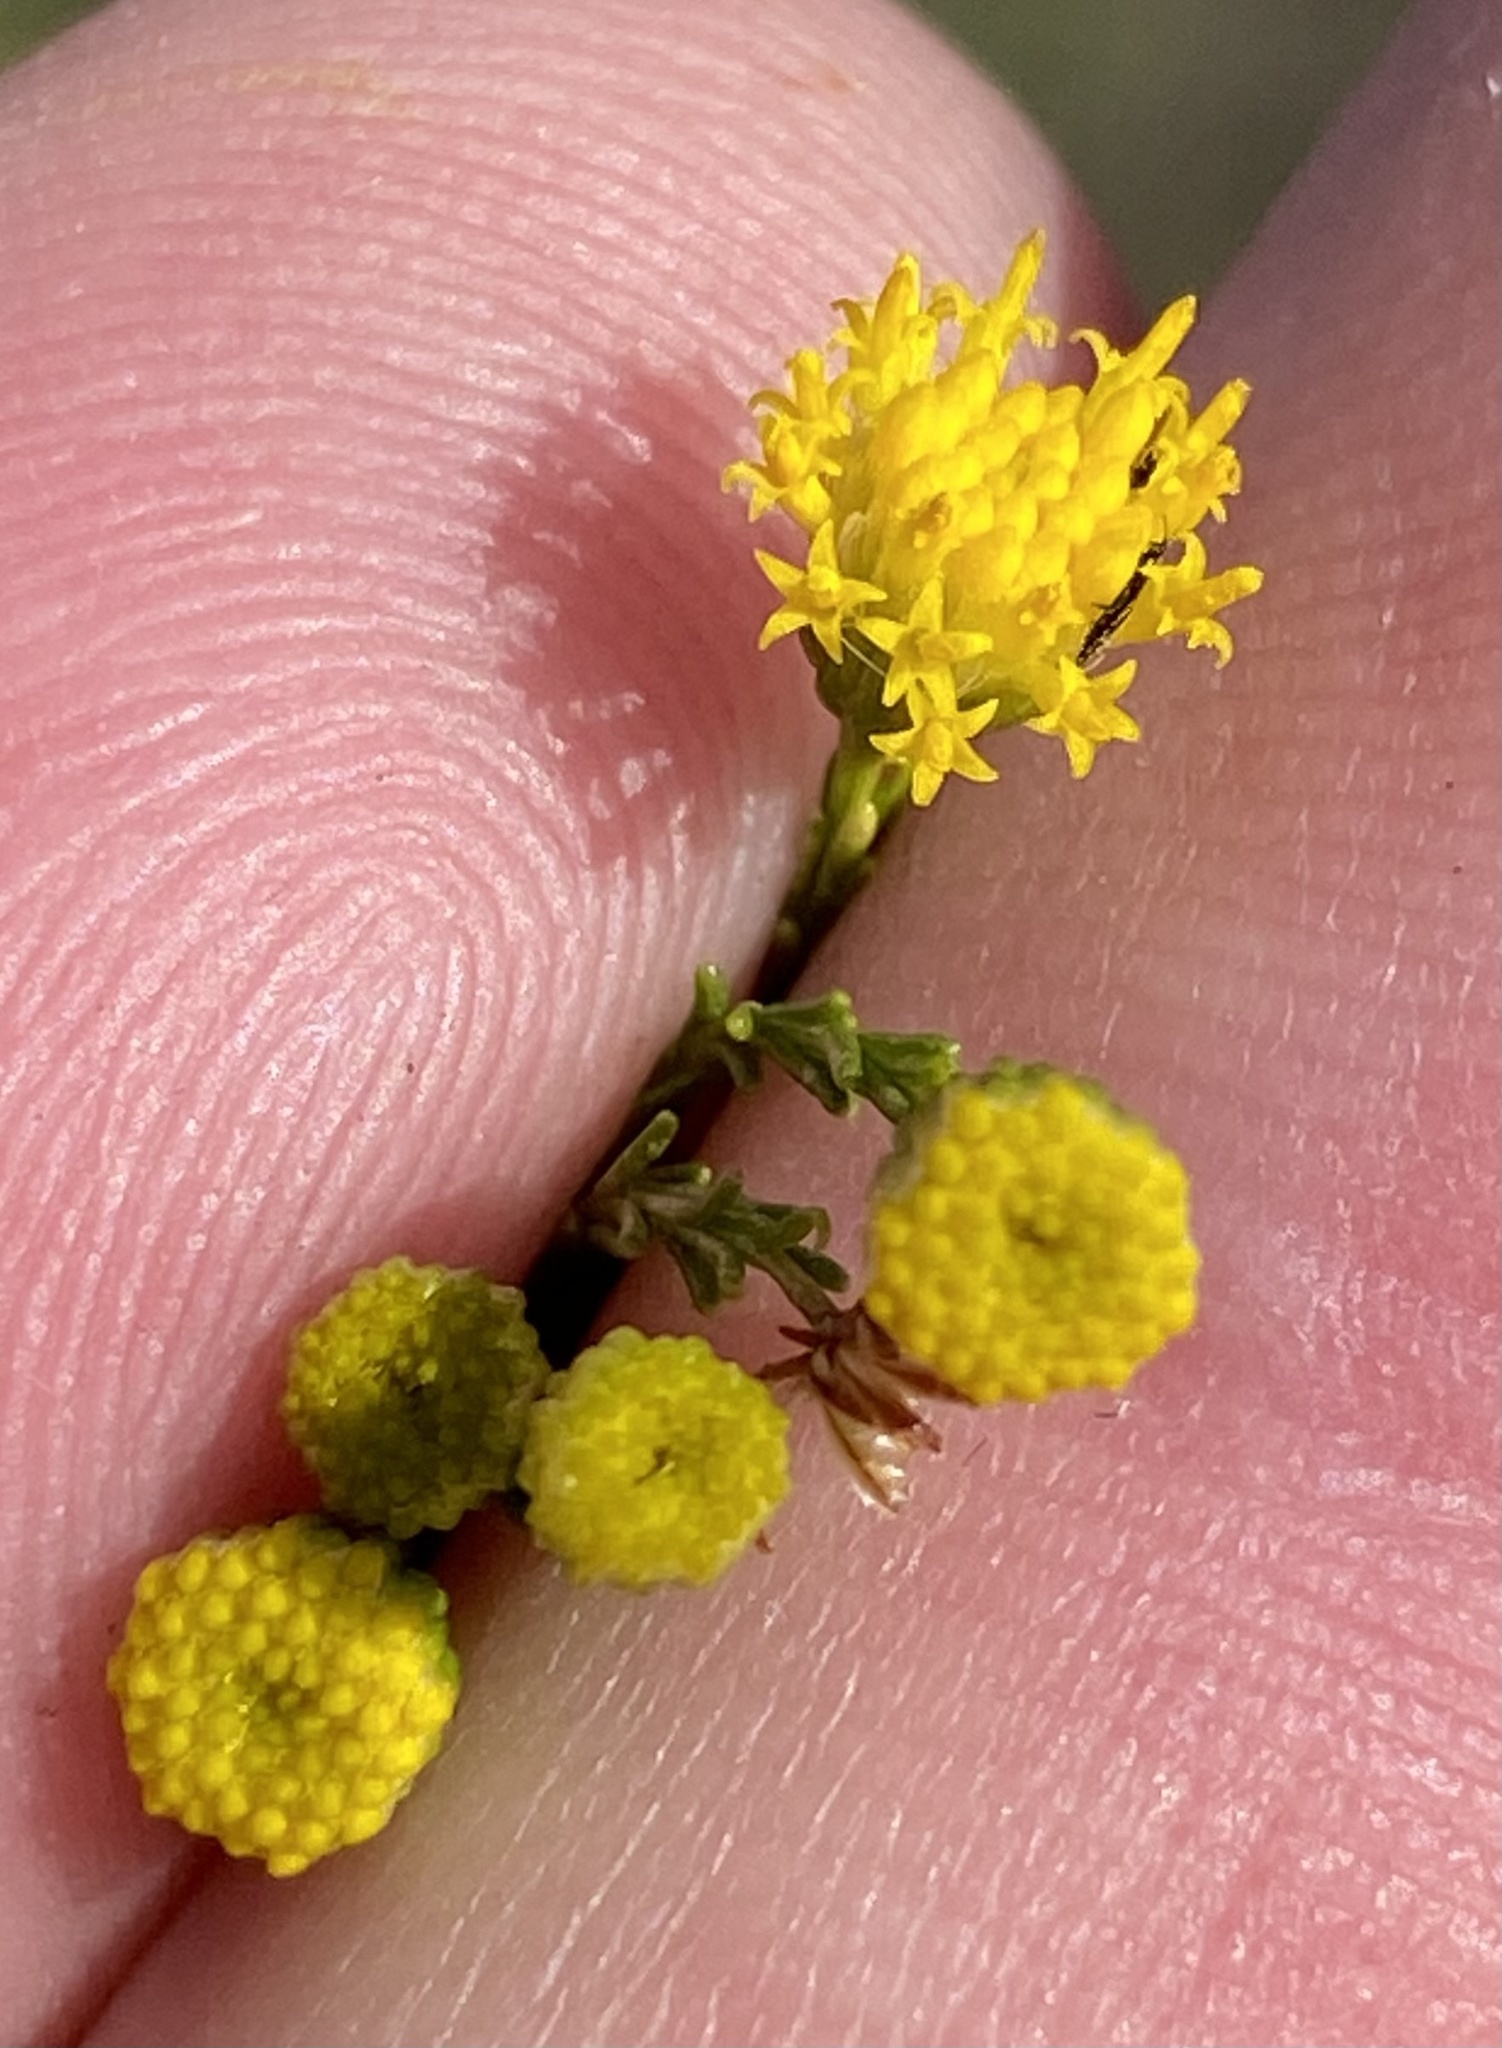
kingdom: Plantae
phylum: Tracheophyta
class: Magnoliopsida
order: Asterales
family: Asteraceae
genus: Chrysocoma
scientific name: Chrysocoma ciliata
